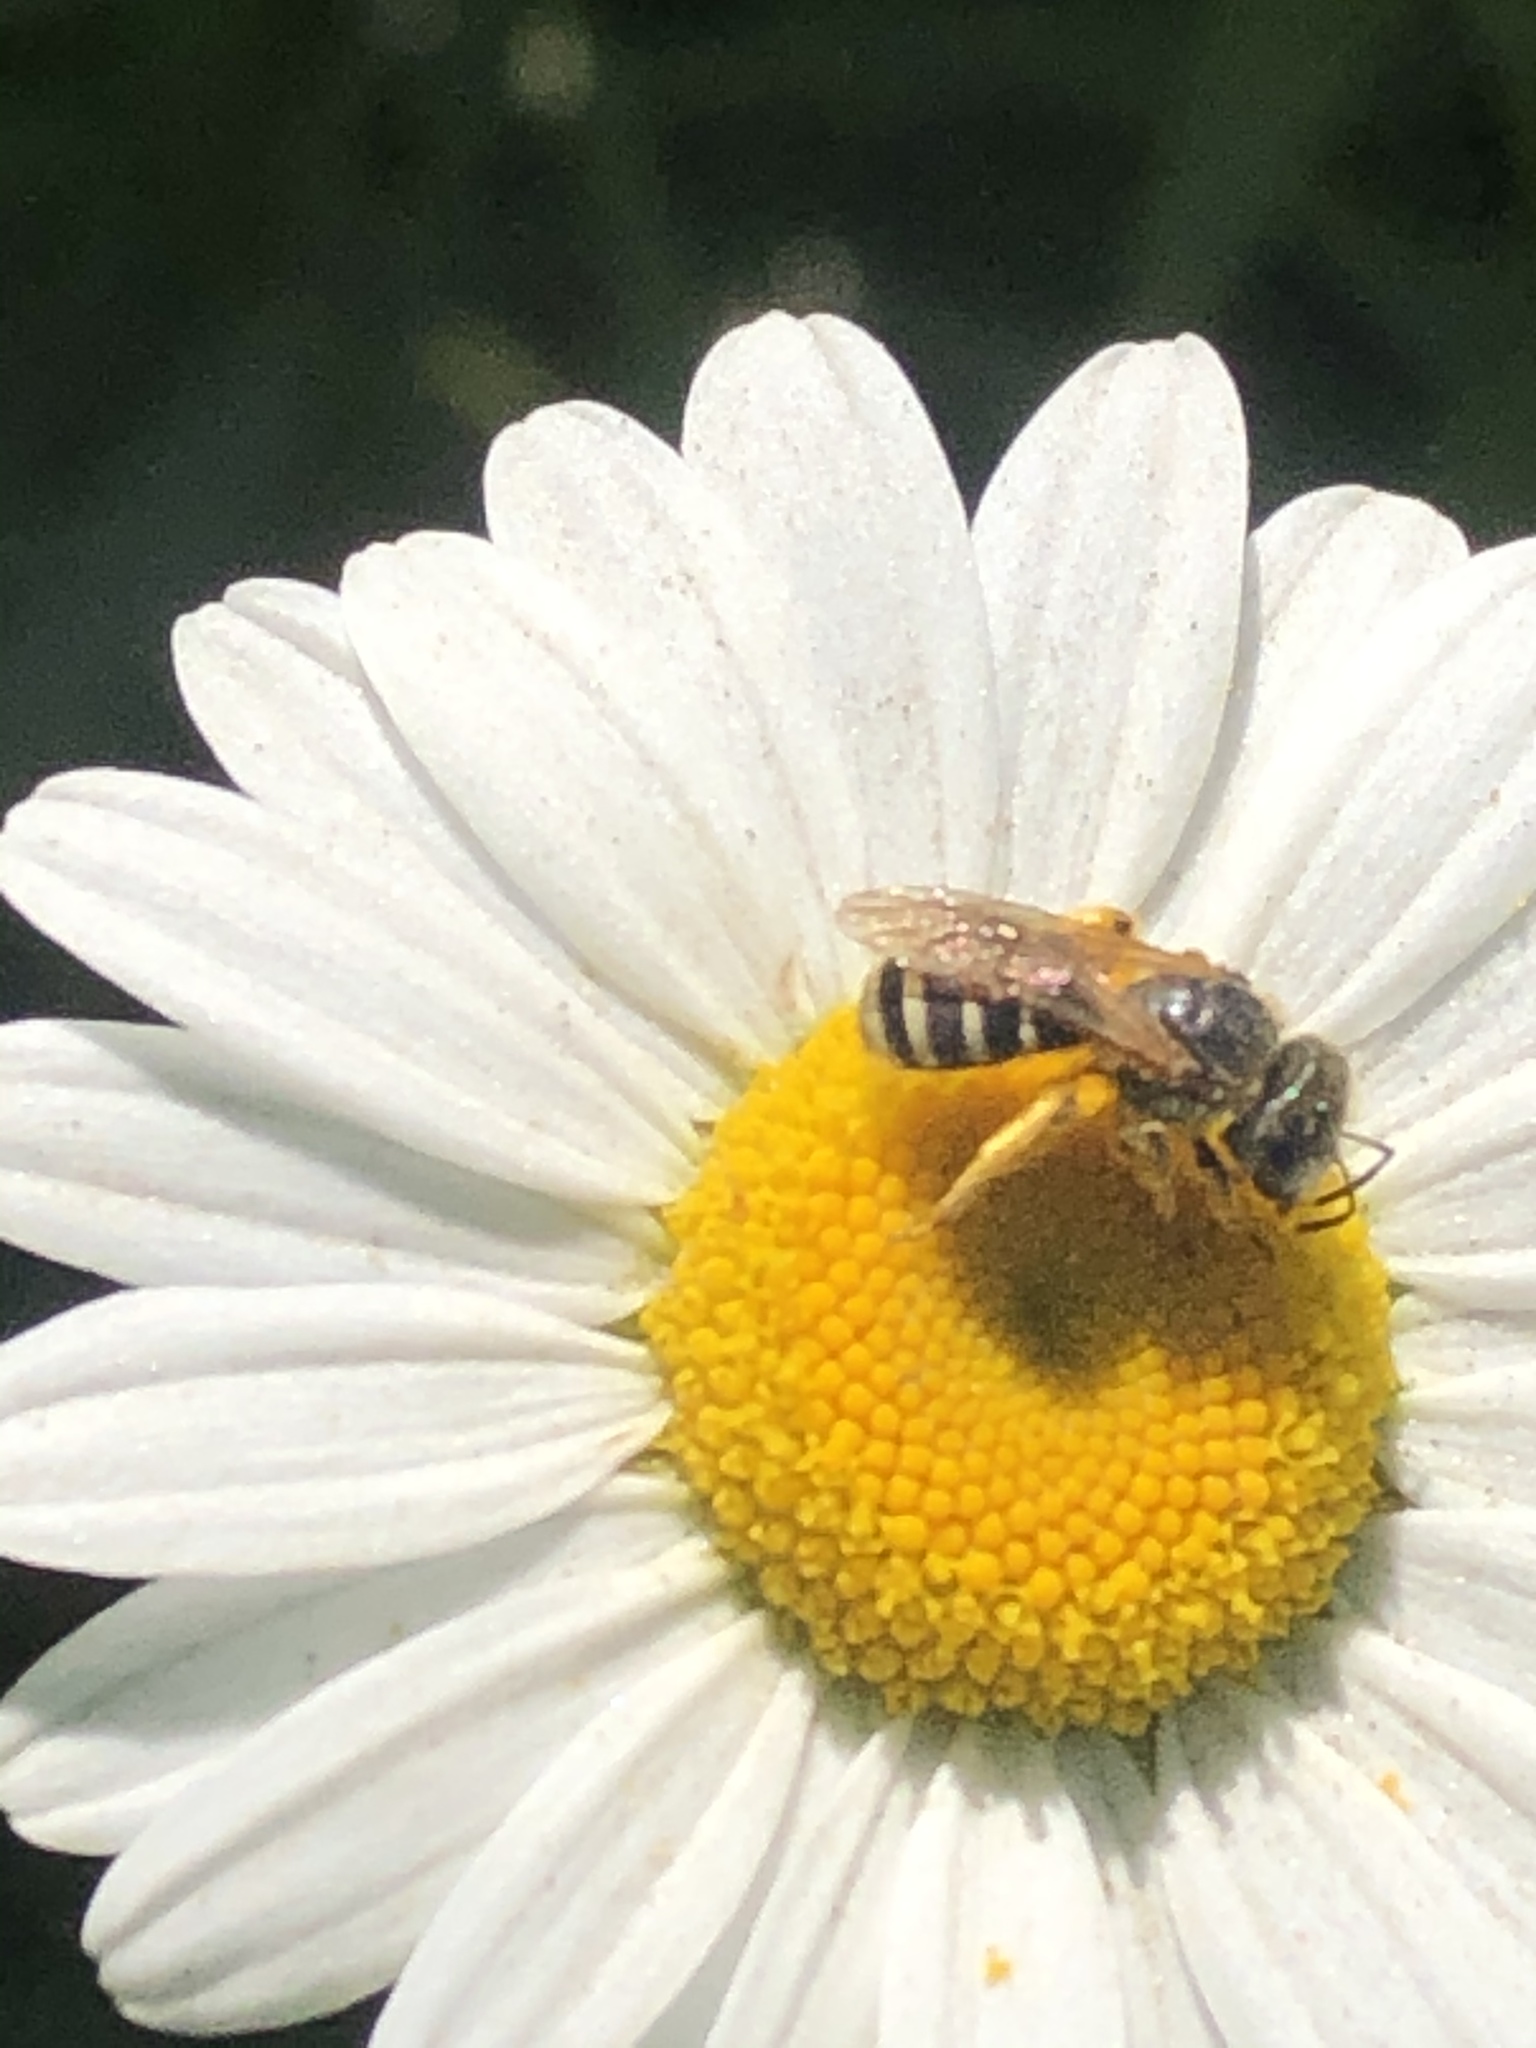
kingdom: Animalia
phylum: Arthropoda
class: Insecta
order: Hymenoptera
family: Halictidae
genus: Halictus
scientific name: Halictus ligatus
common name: Ligated furrow bee
